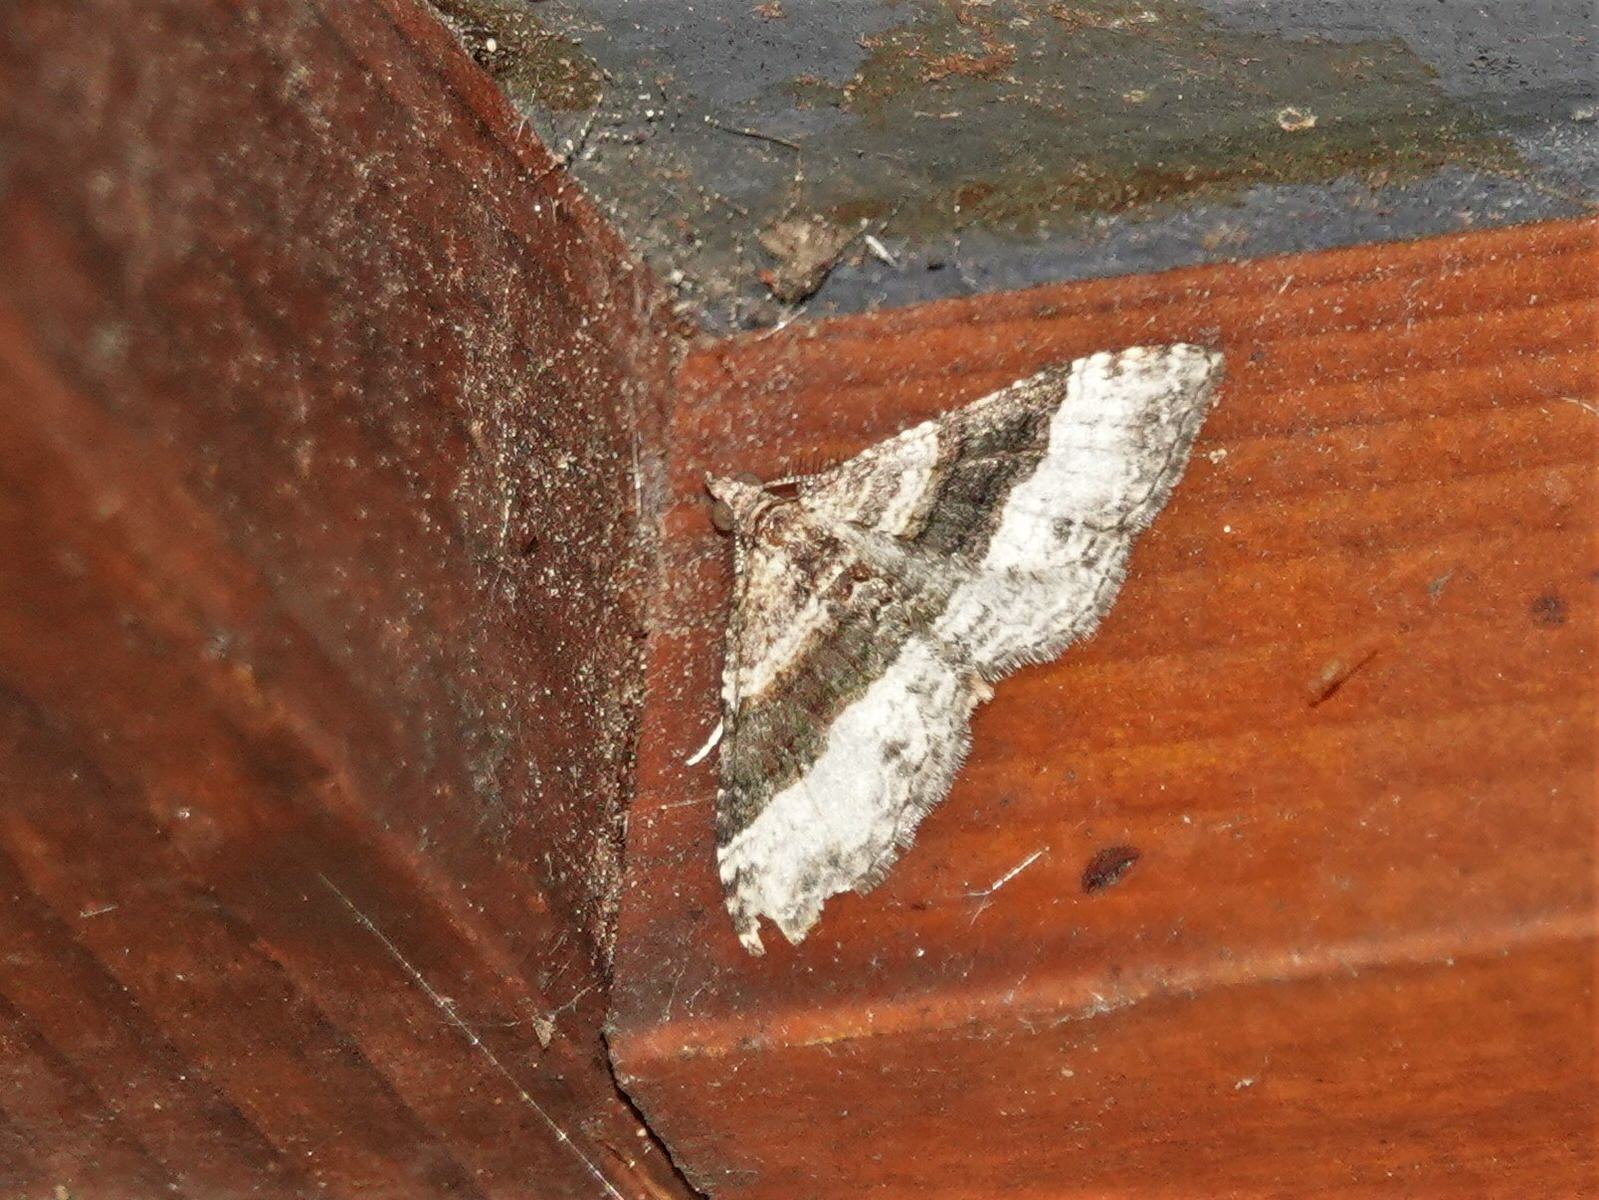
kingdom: Animalia
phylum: Arthropoda
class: Insecta
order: Lepidoptera
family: Geometridae
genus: Epyaxa
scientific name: Epyaxa lucidata
